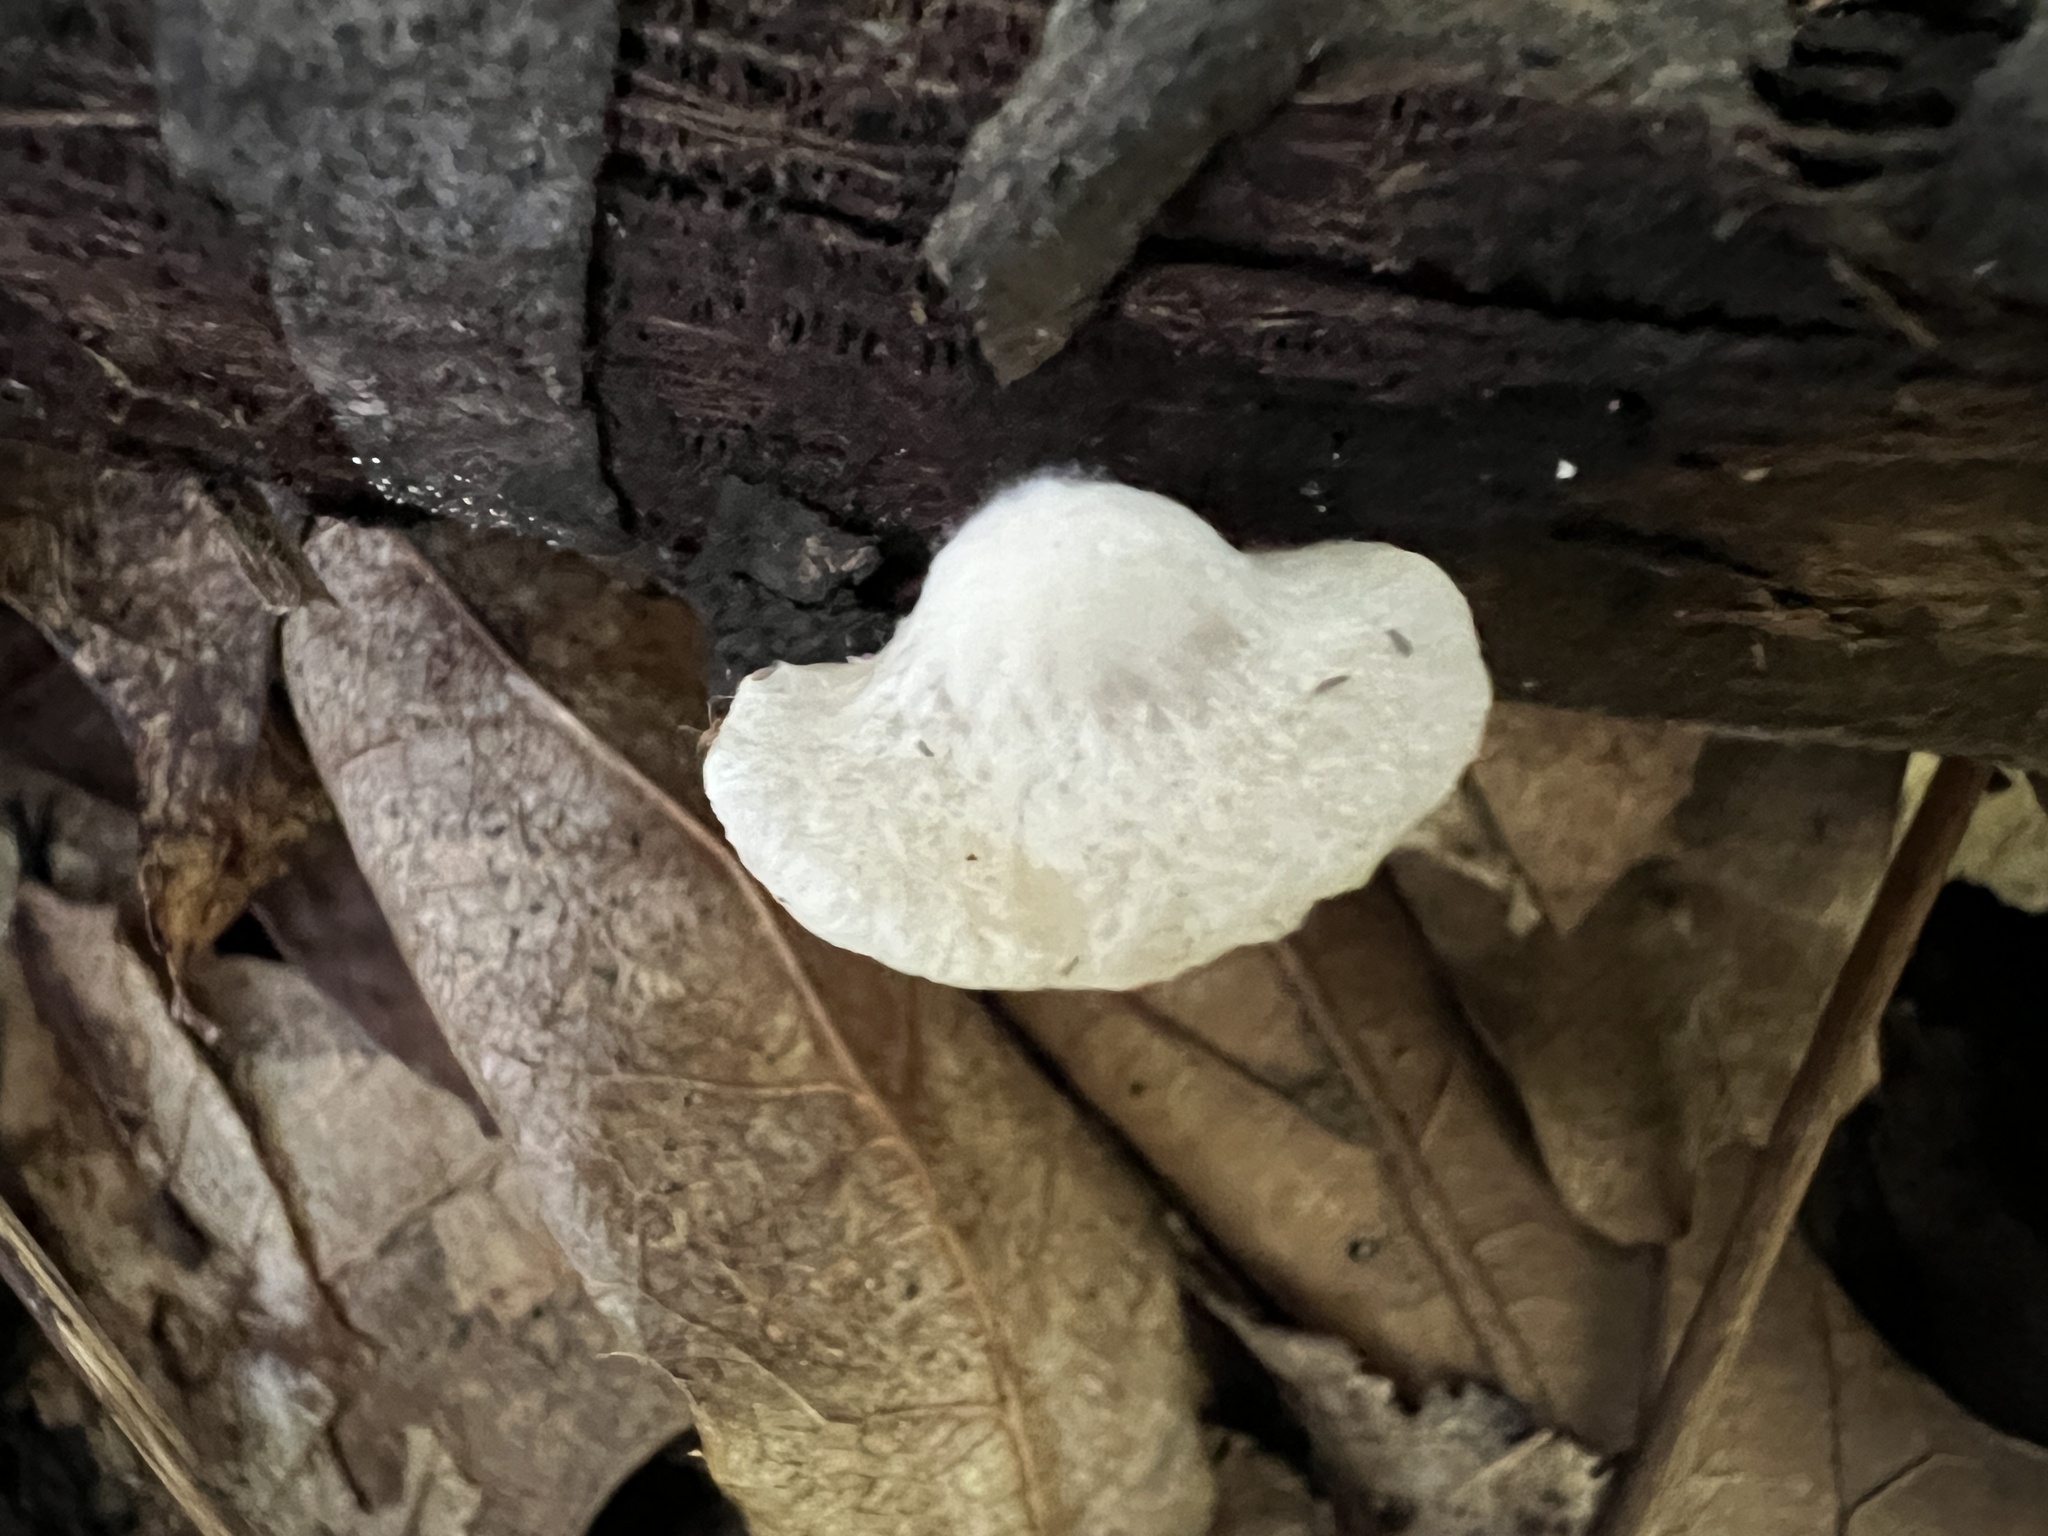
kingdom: Fungi
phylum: Basidiomycota
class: Agaricomycetes
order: Agaricales
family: Crepidotaceae
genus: Crepidotus
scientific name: Crepidotus albissimus
